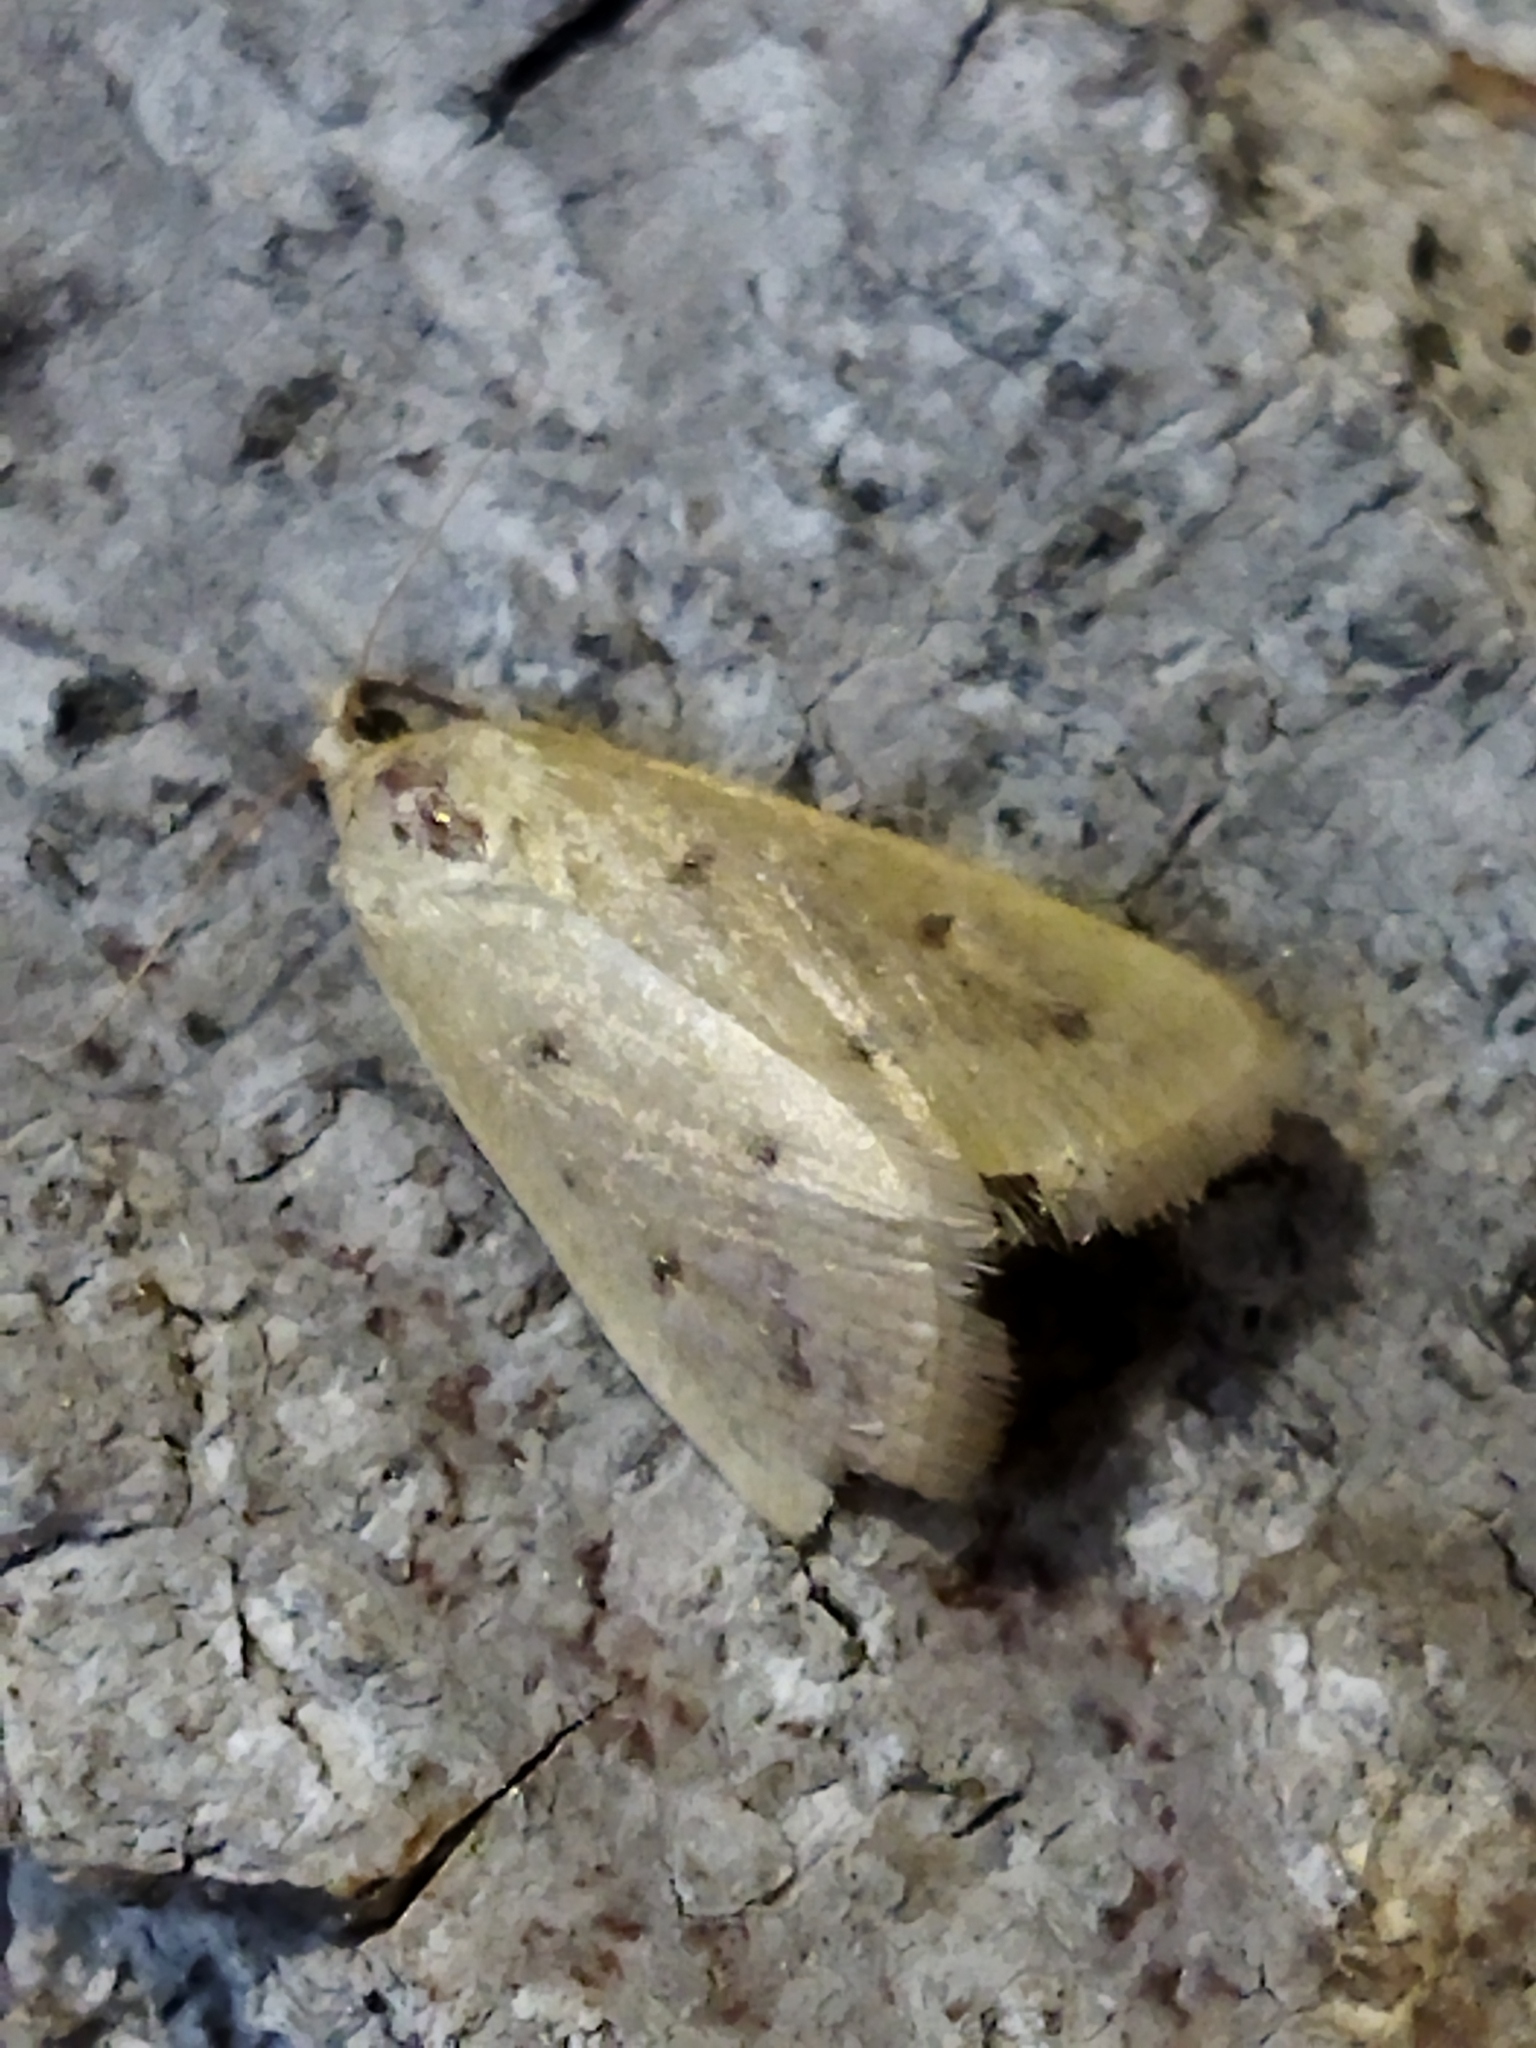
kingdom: Animalia
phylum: Arthropoda
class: Insecta
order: Lepidoptera
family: Crambidae
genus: Achyra
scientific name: Achyra nudalis
